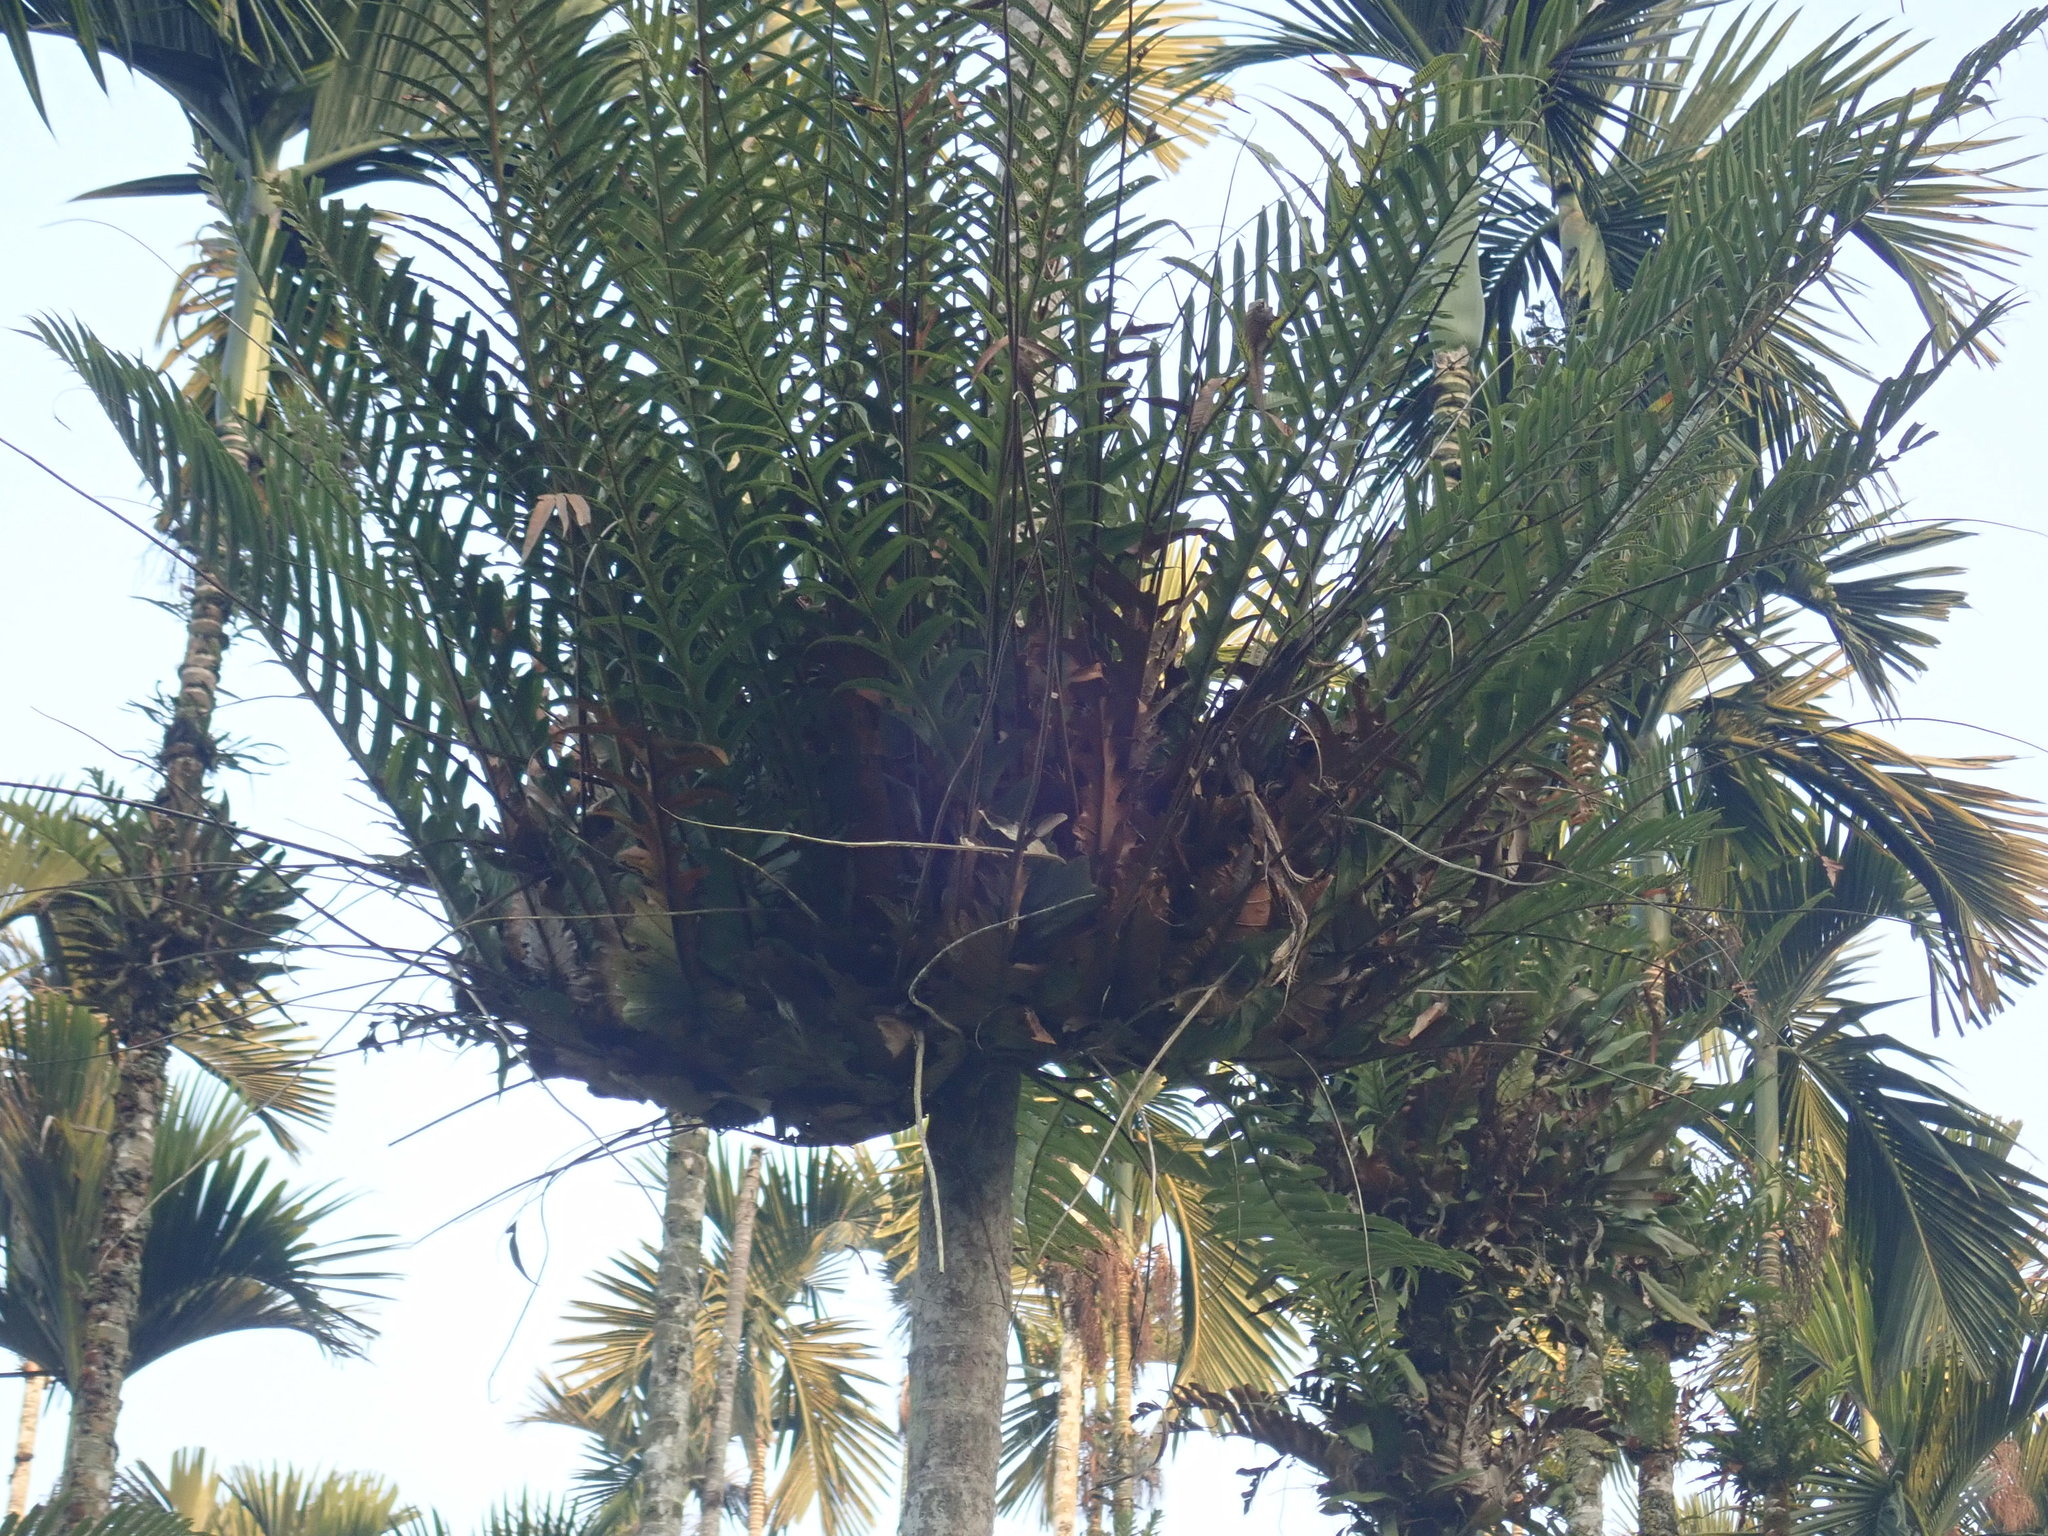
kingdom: Plantae
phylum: Tracheophyta
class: Polypodiopsida
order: Polypodiales
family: Polypodiaceae
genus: Drynaria
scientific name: Drynaria coronans
